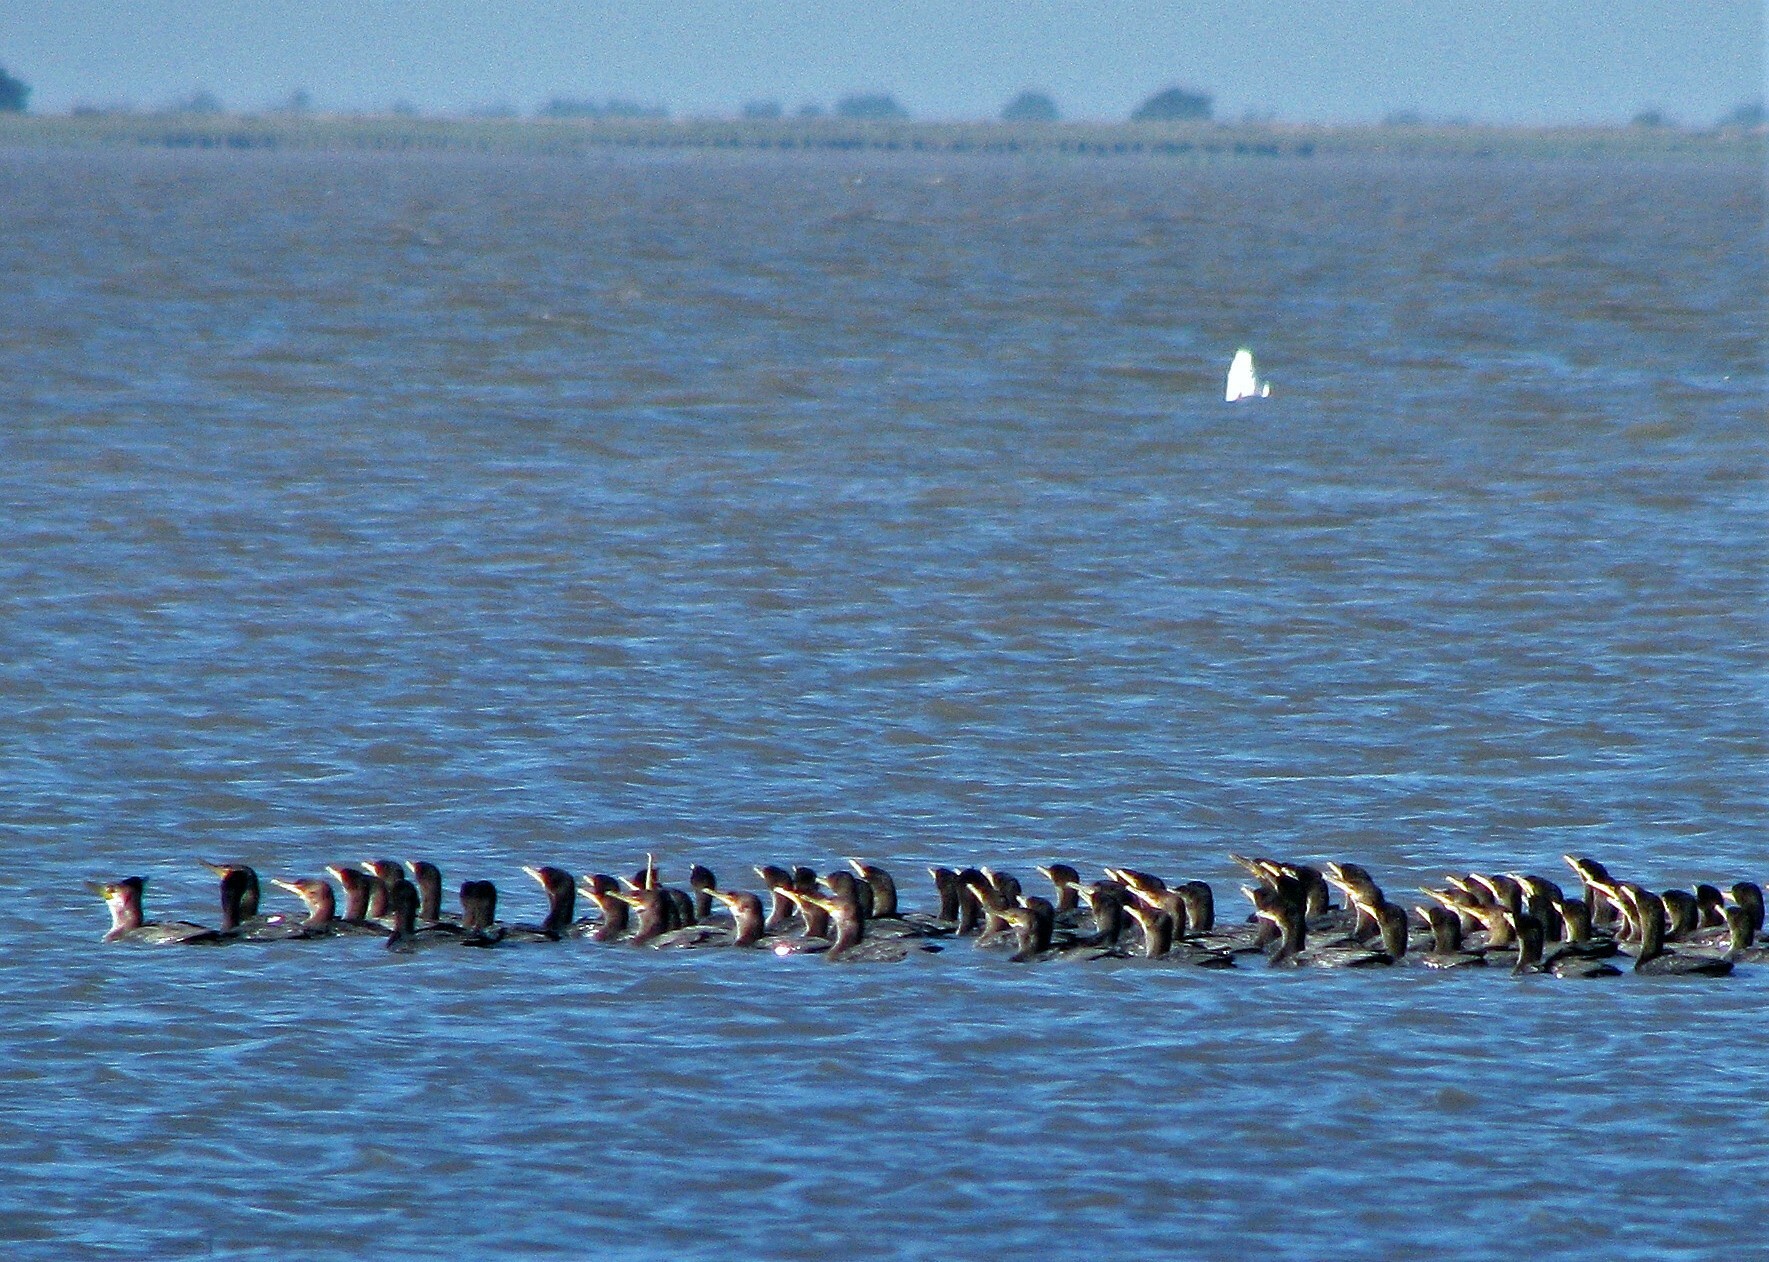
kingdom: Animalia
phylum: Chordata
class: Aves
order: Suliformes
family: Phalacrocoracidae
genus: Phalacrocorax
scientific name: Phalacrocorax brasilianus
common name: Neotropic cormorant
